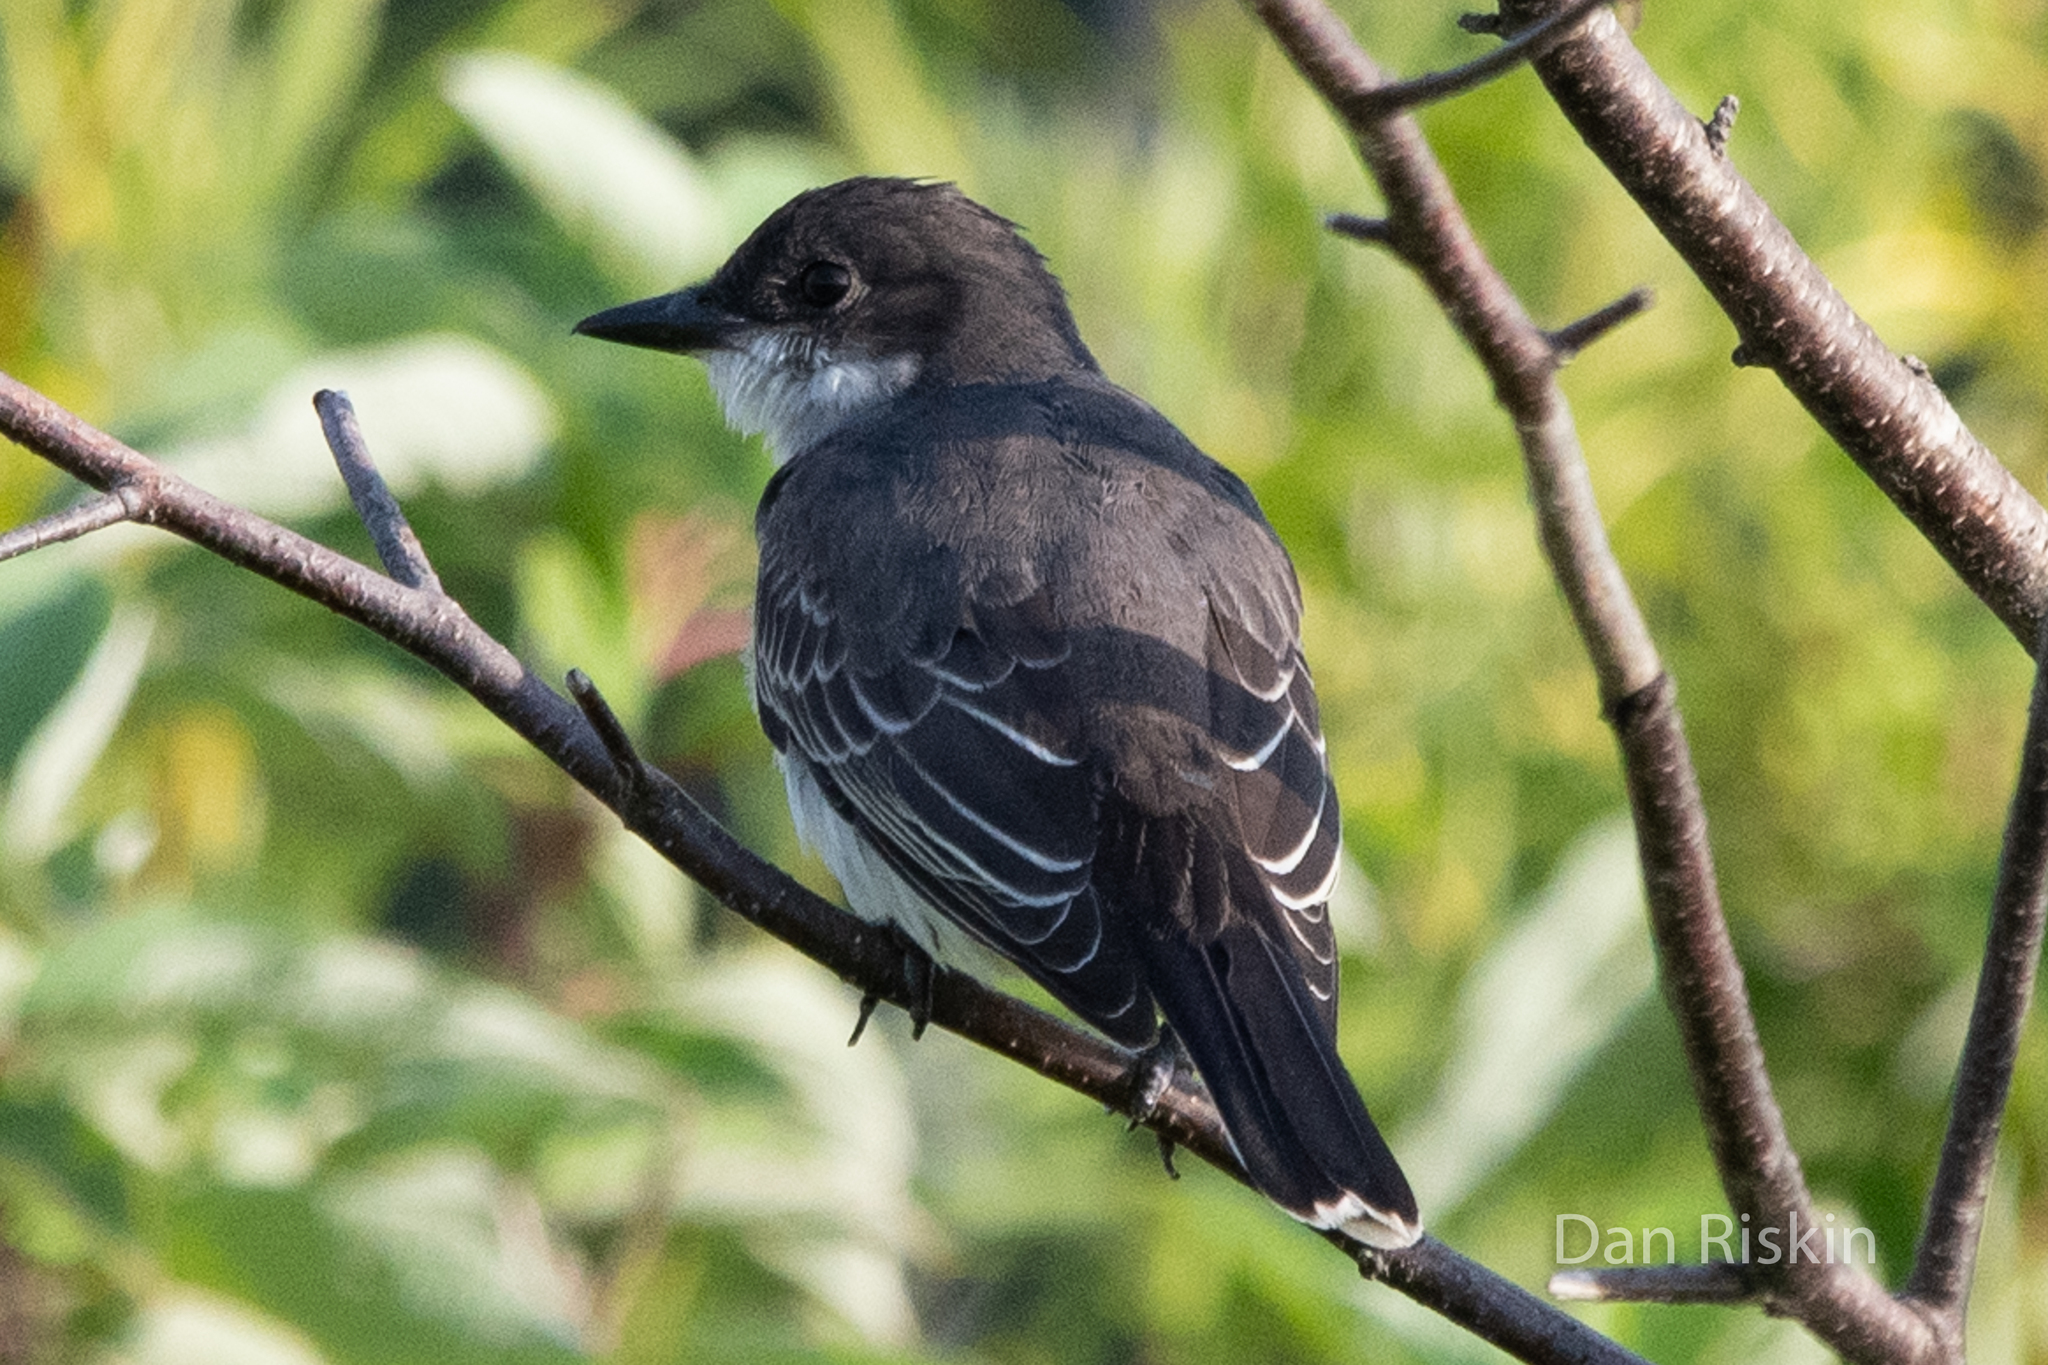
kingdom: Animalia
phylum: Chordata
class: Aves
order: Passeriformes
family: Tyrannidae
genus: Tyrannus
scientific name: Tyrannus tyrannus
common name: Eastern kingbird
